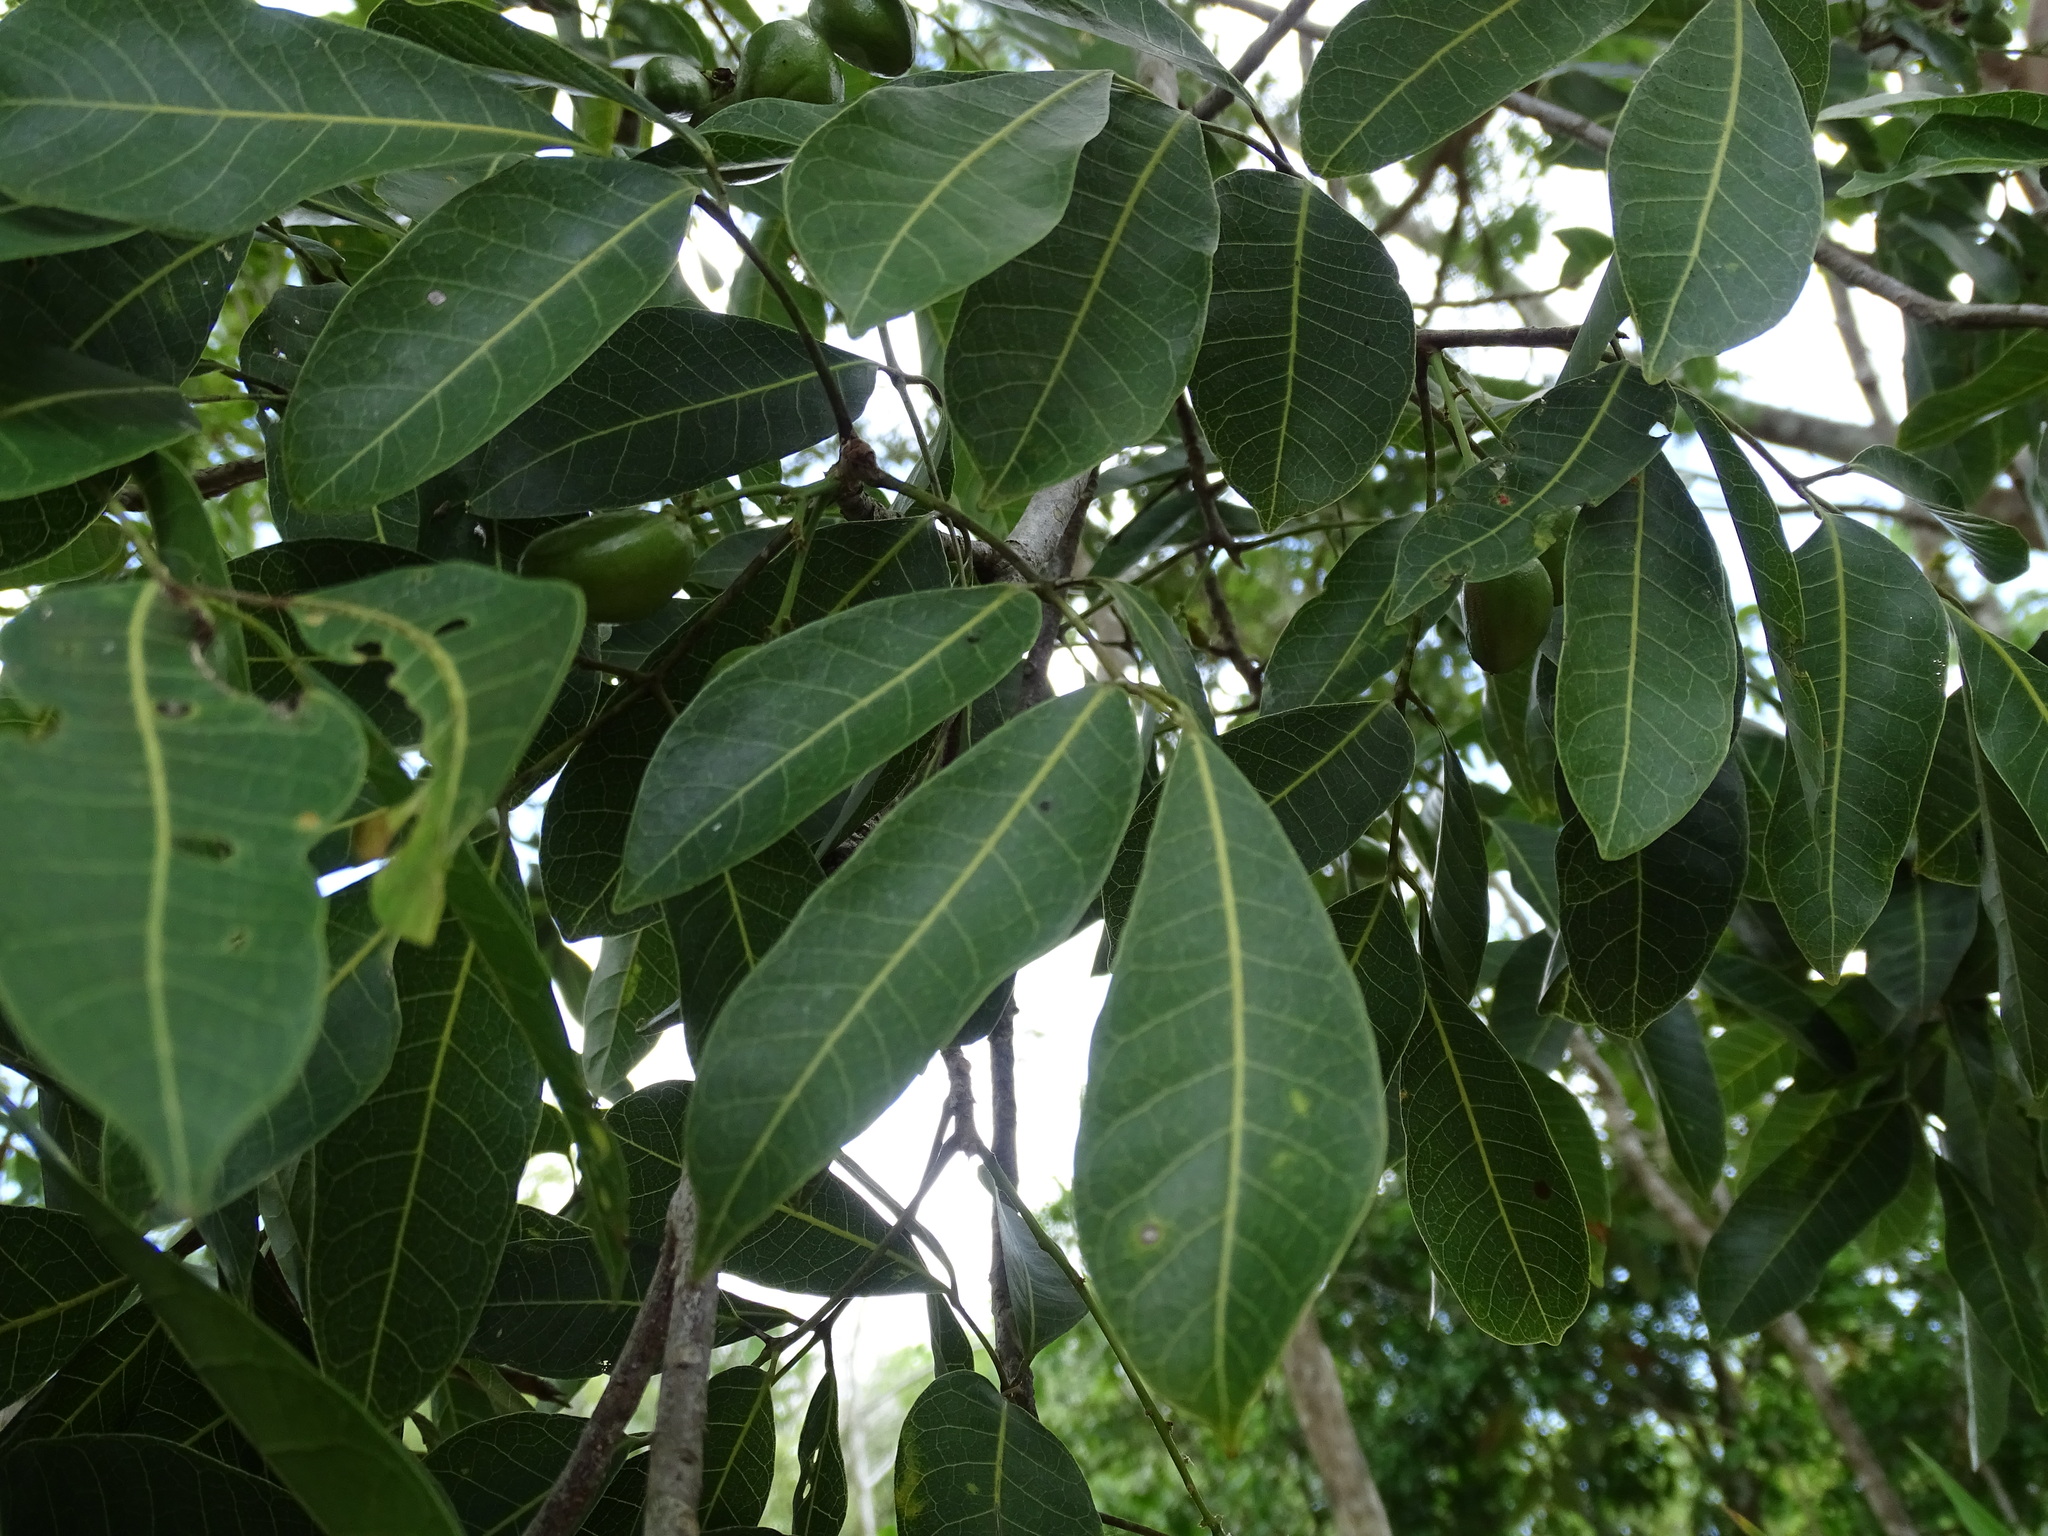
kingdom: Plantae
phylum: Tracheophyta
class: Magnoliopsida
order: Sapindales
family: Burseraceae
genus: Protium
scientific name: Protium copal
